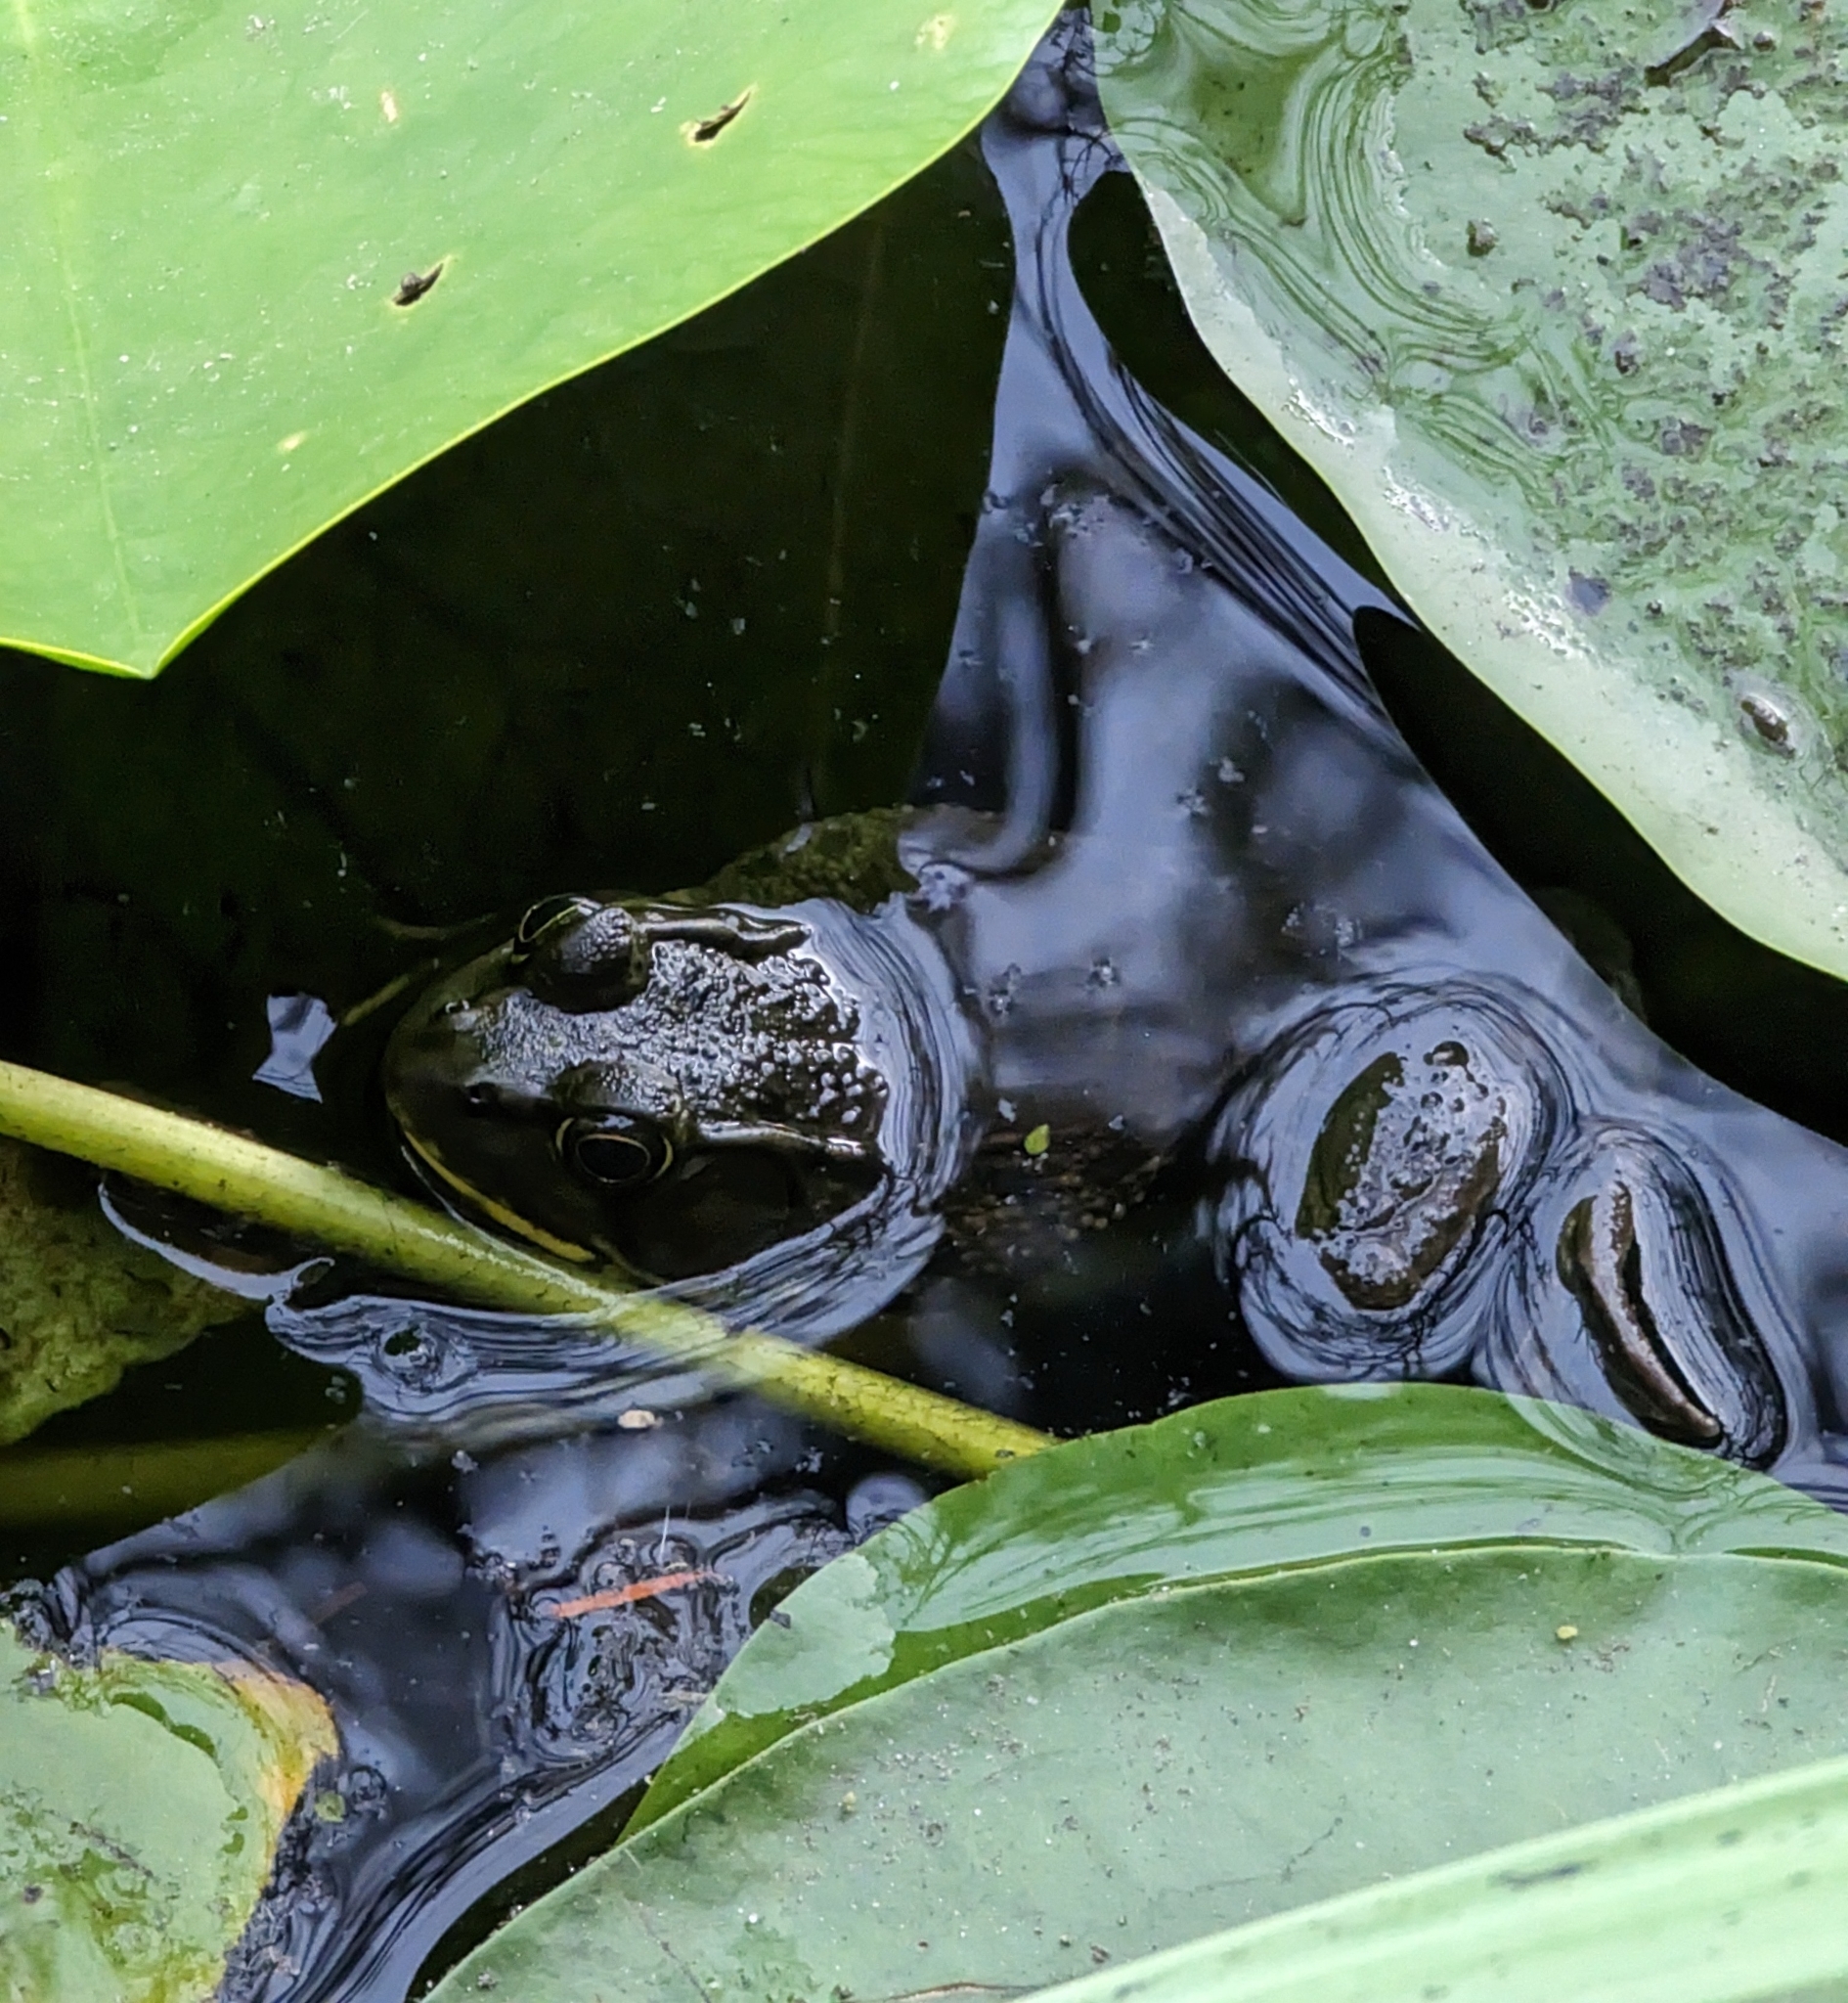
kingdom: Animalia
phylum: Chordata
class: Amphibia
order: Anura
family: Ranidae
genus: Lithobates
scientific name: Lithobates clamitans
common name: Green frog
